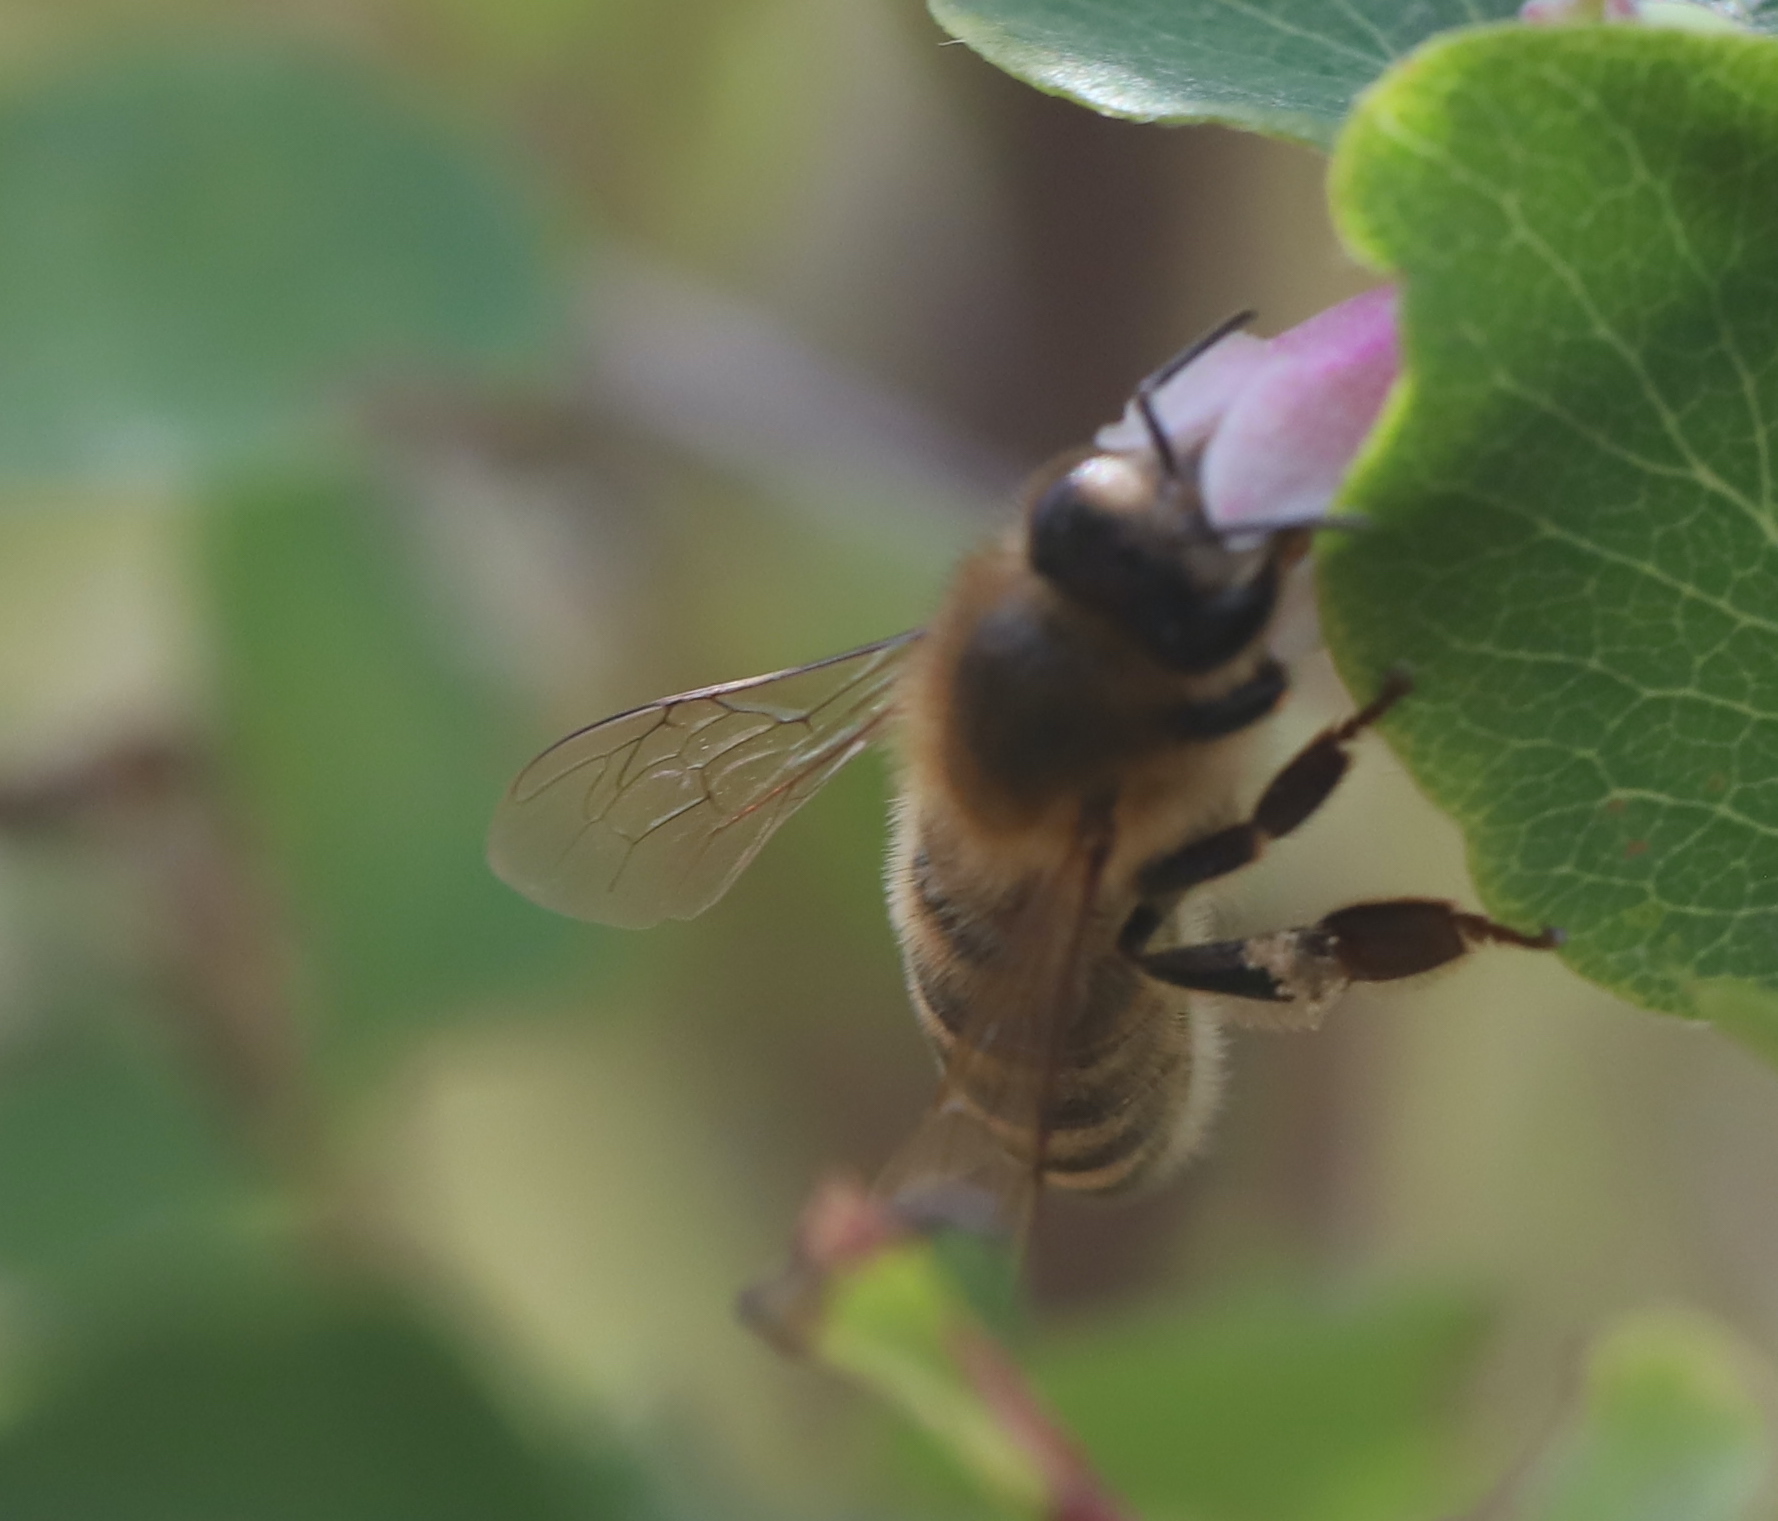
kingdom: Animalia
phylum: Arthropoda
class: Insecta
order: Hymenoptera
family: Apidae
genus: Apis
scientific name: Apis mellifera
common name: Honey bee
